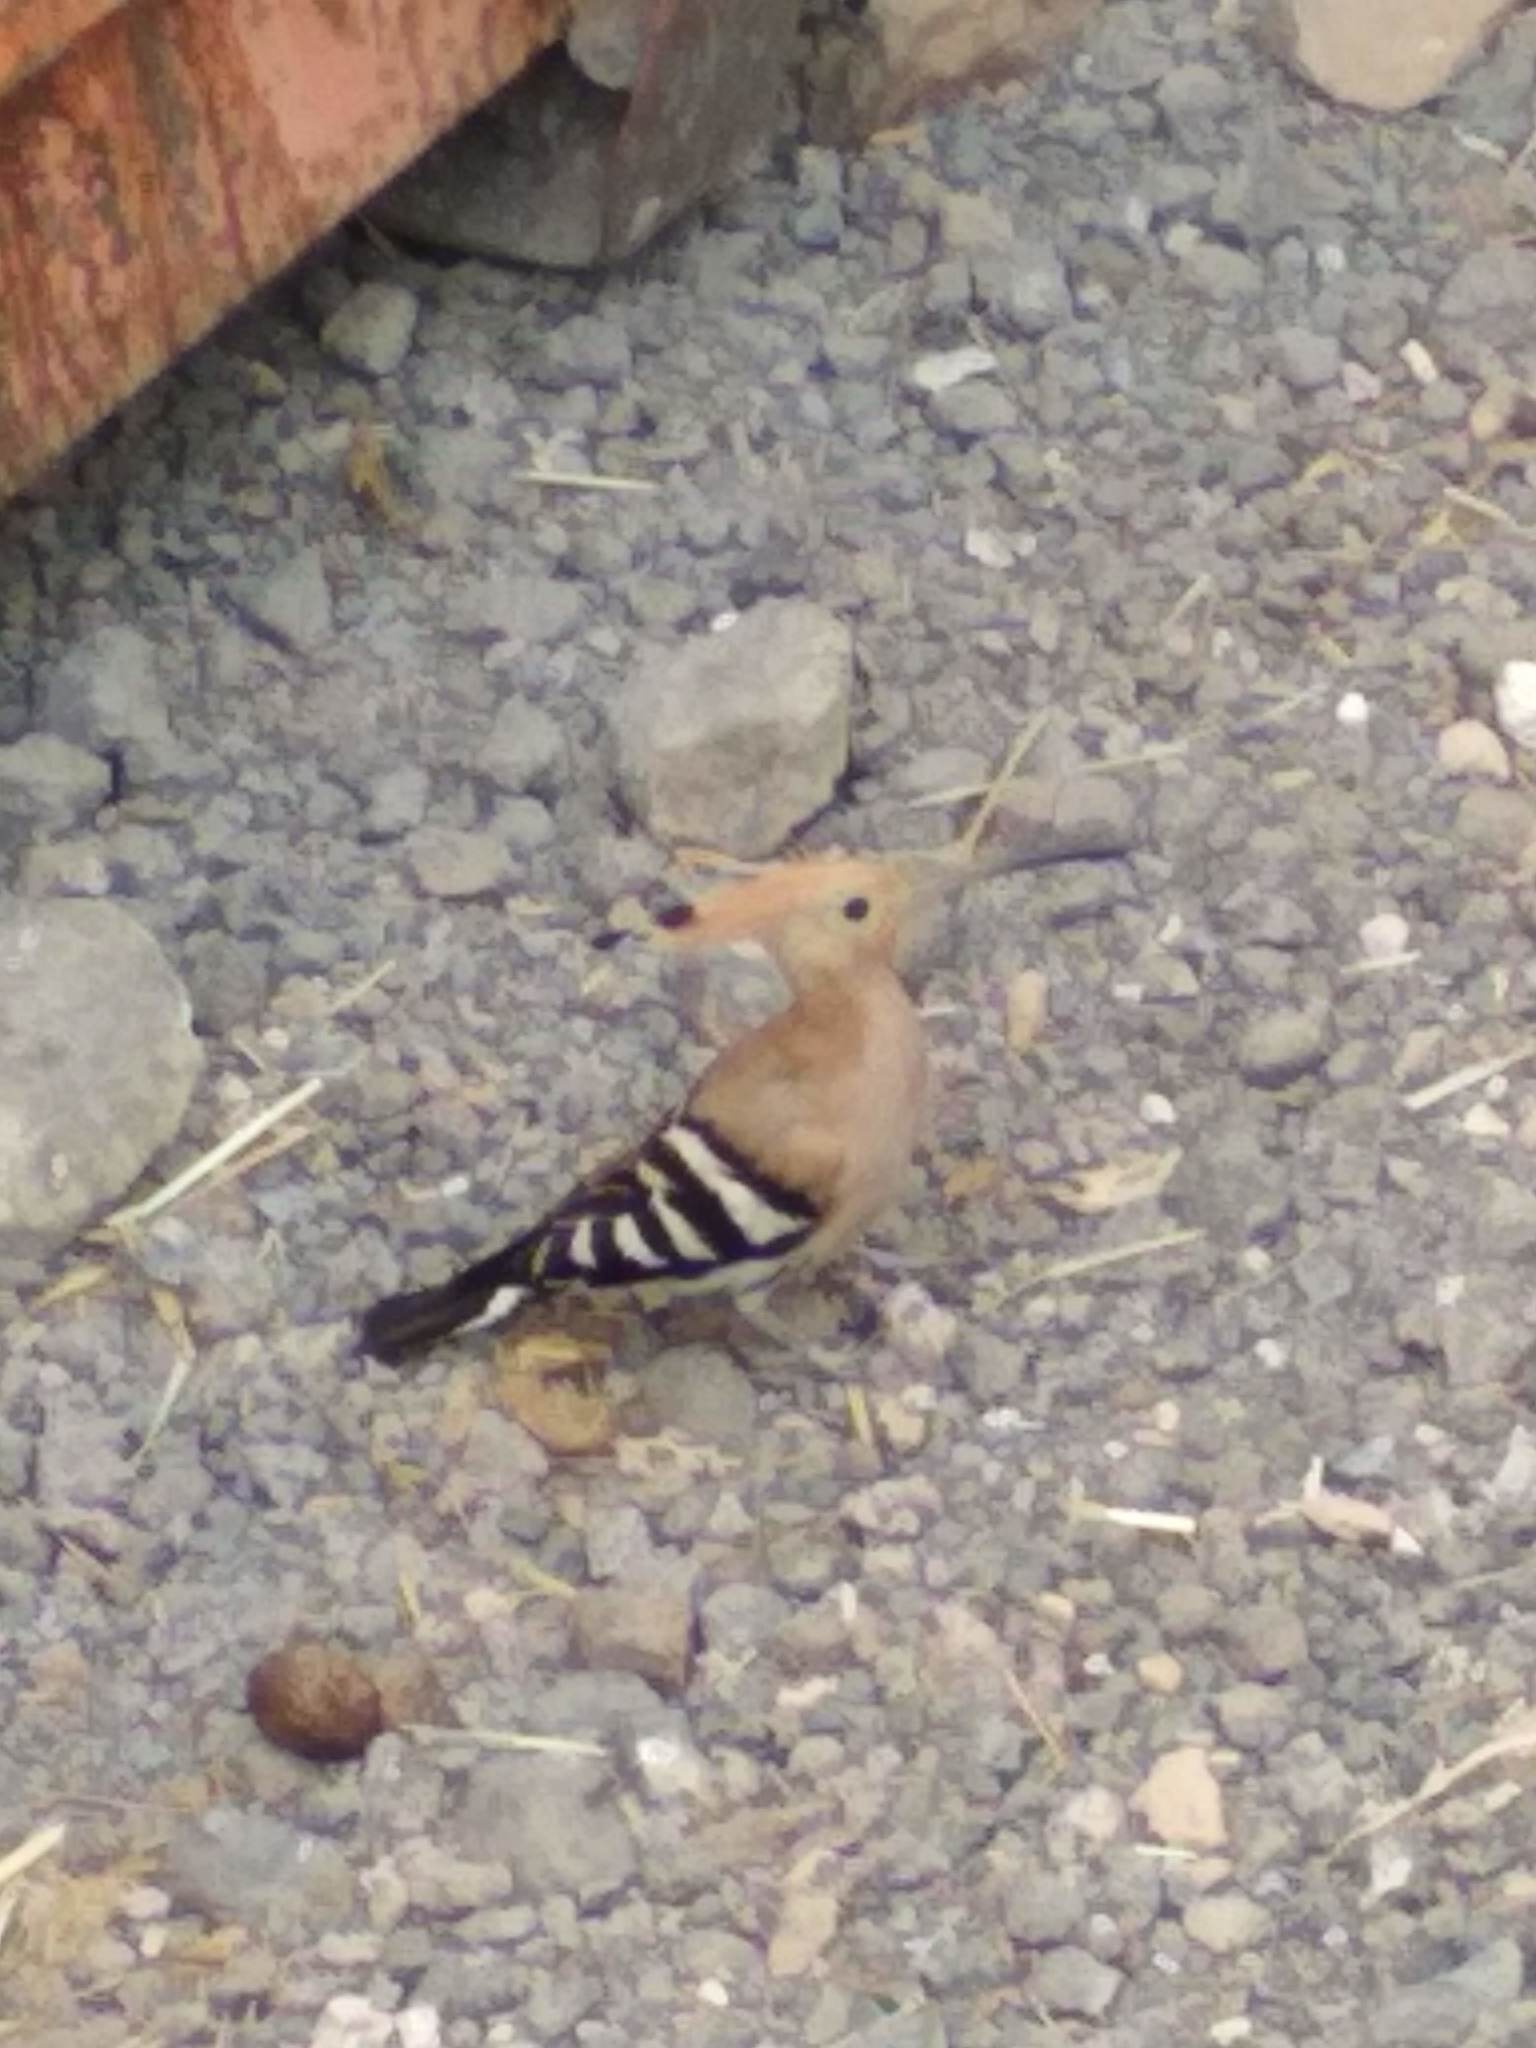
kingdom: Animalia
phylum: Chordata
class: Aves
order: Bucerotiformes
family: Upupidae
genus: Upupa
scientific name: Upupa epops
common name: Eurasian hoopoe
